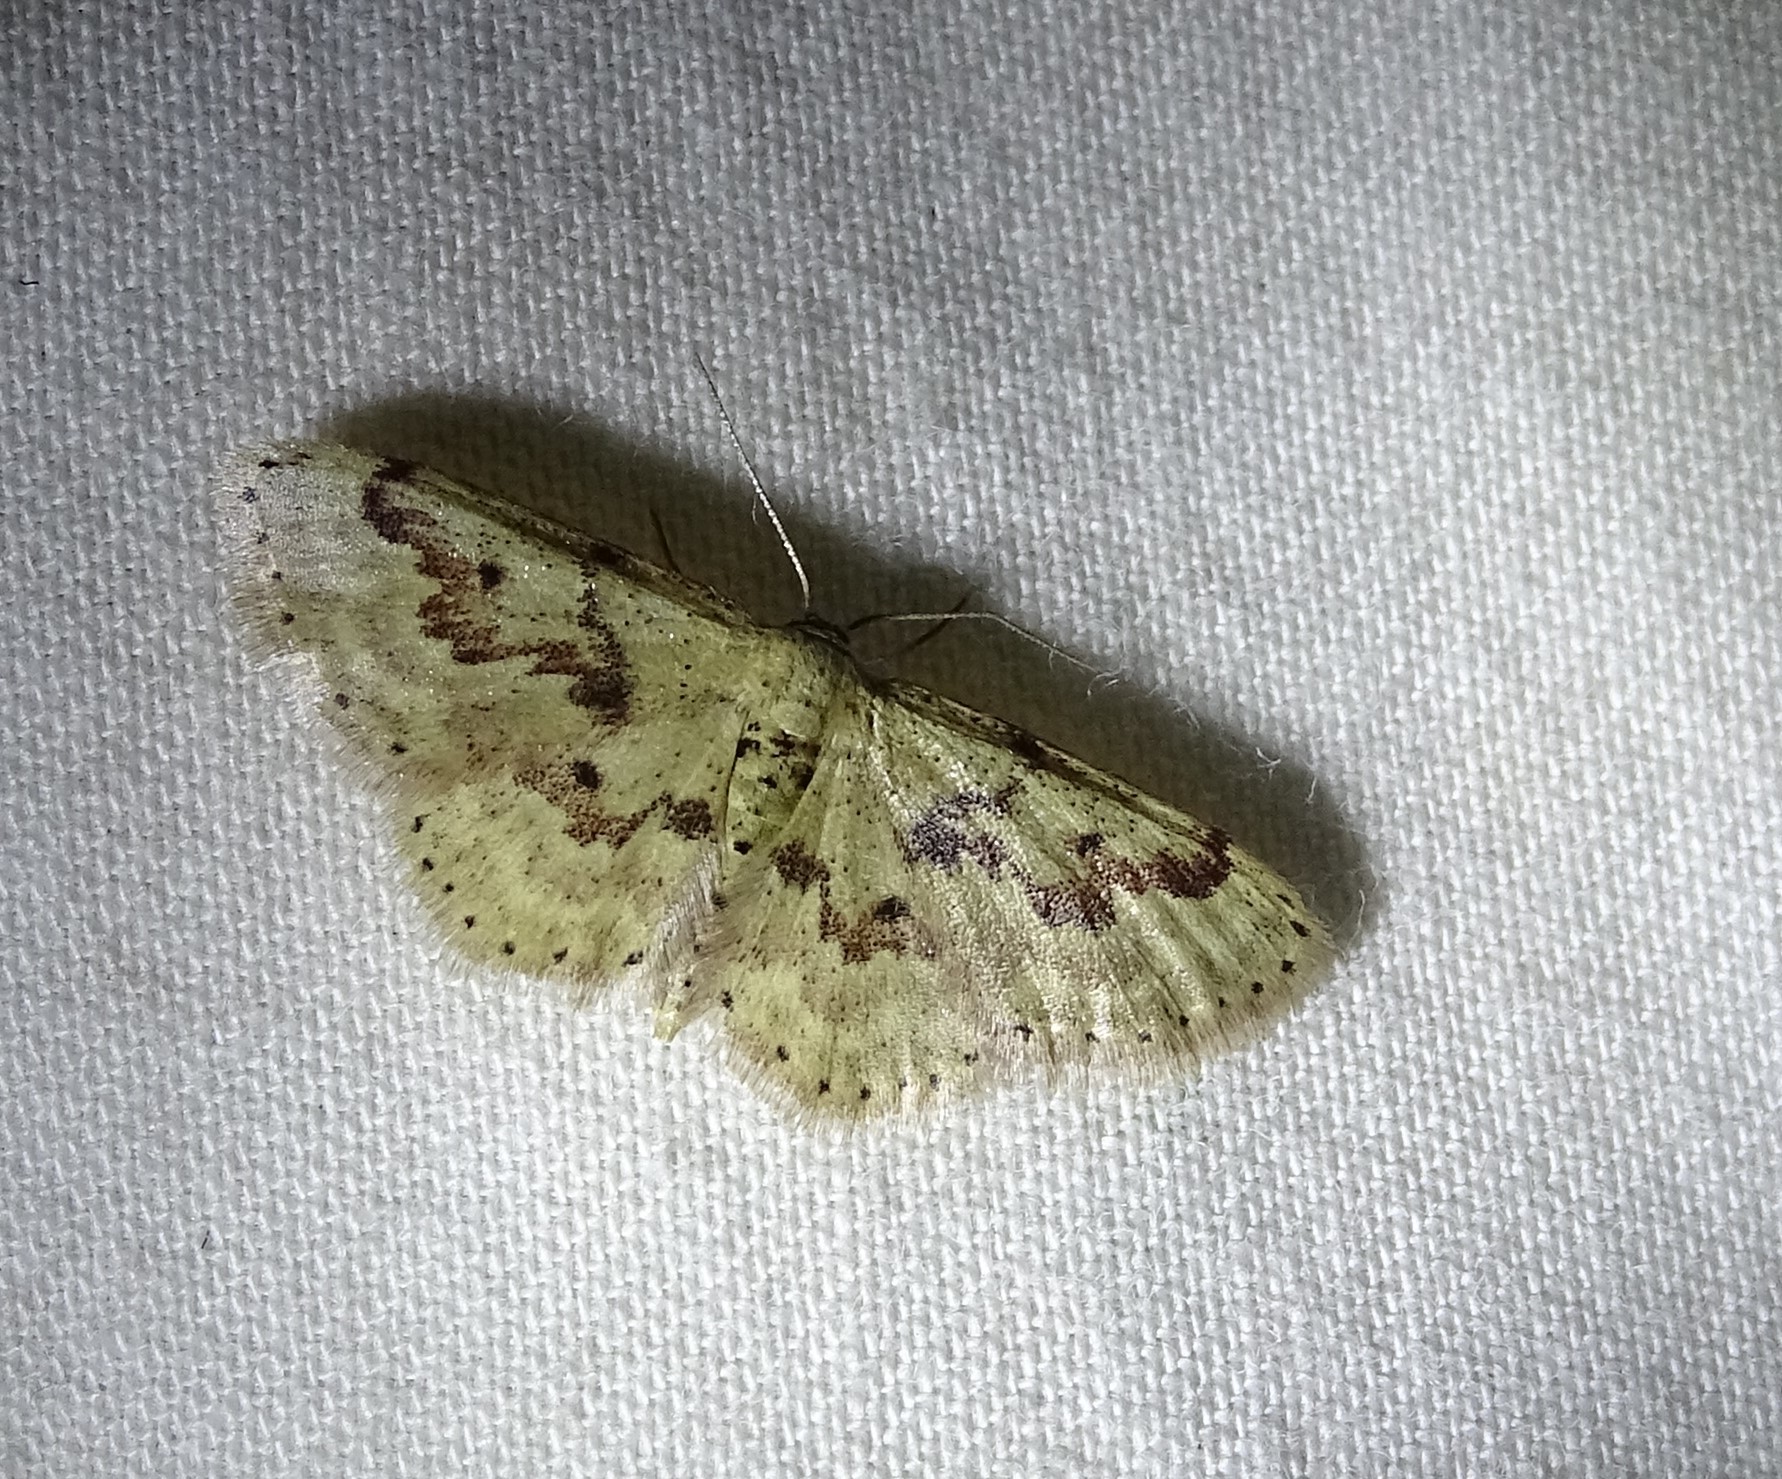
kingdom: Animalia
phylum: Arthropoda
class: Insecta
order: Lepidoptera
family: Geometridae
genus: Idaea
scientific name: Idaea micropterata
